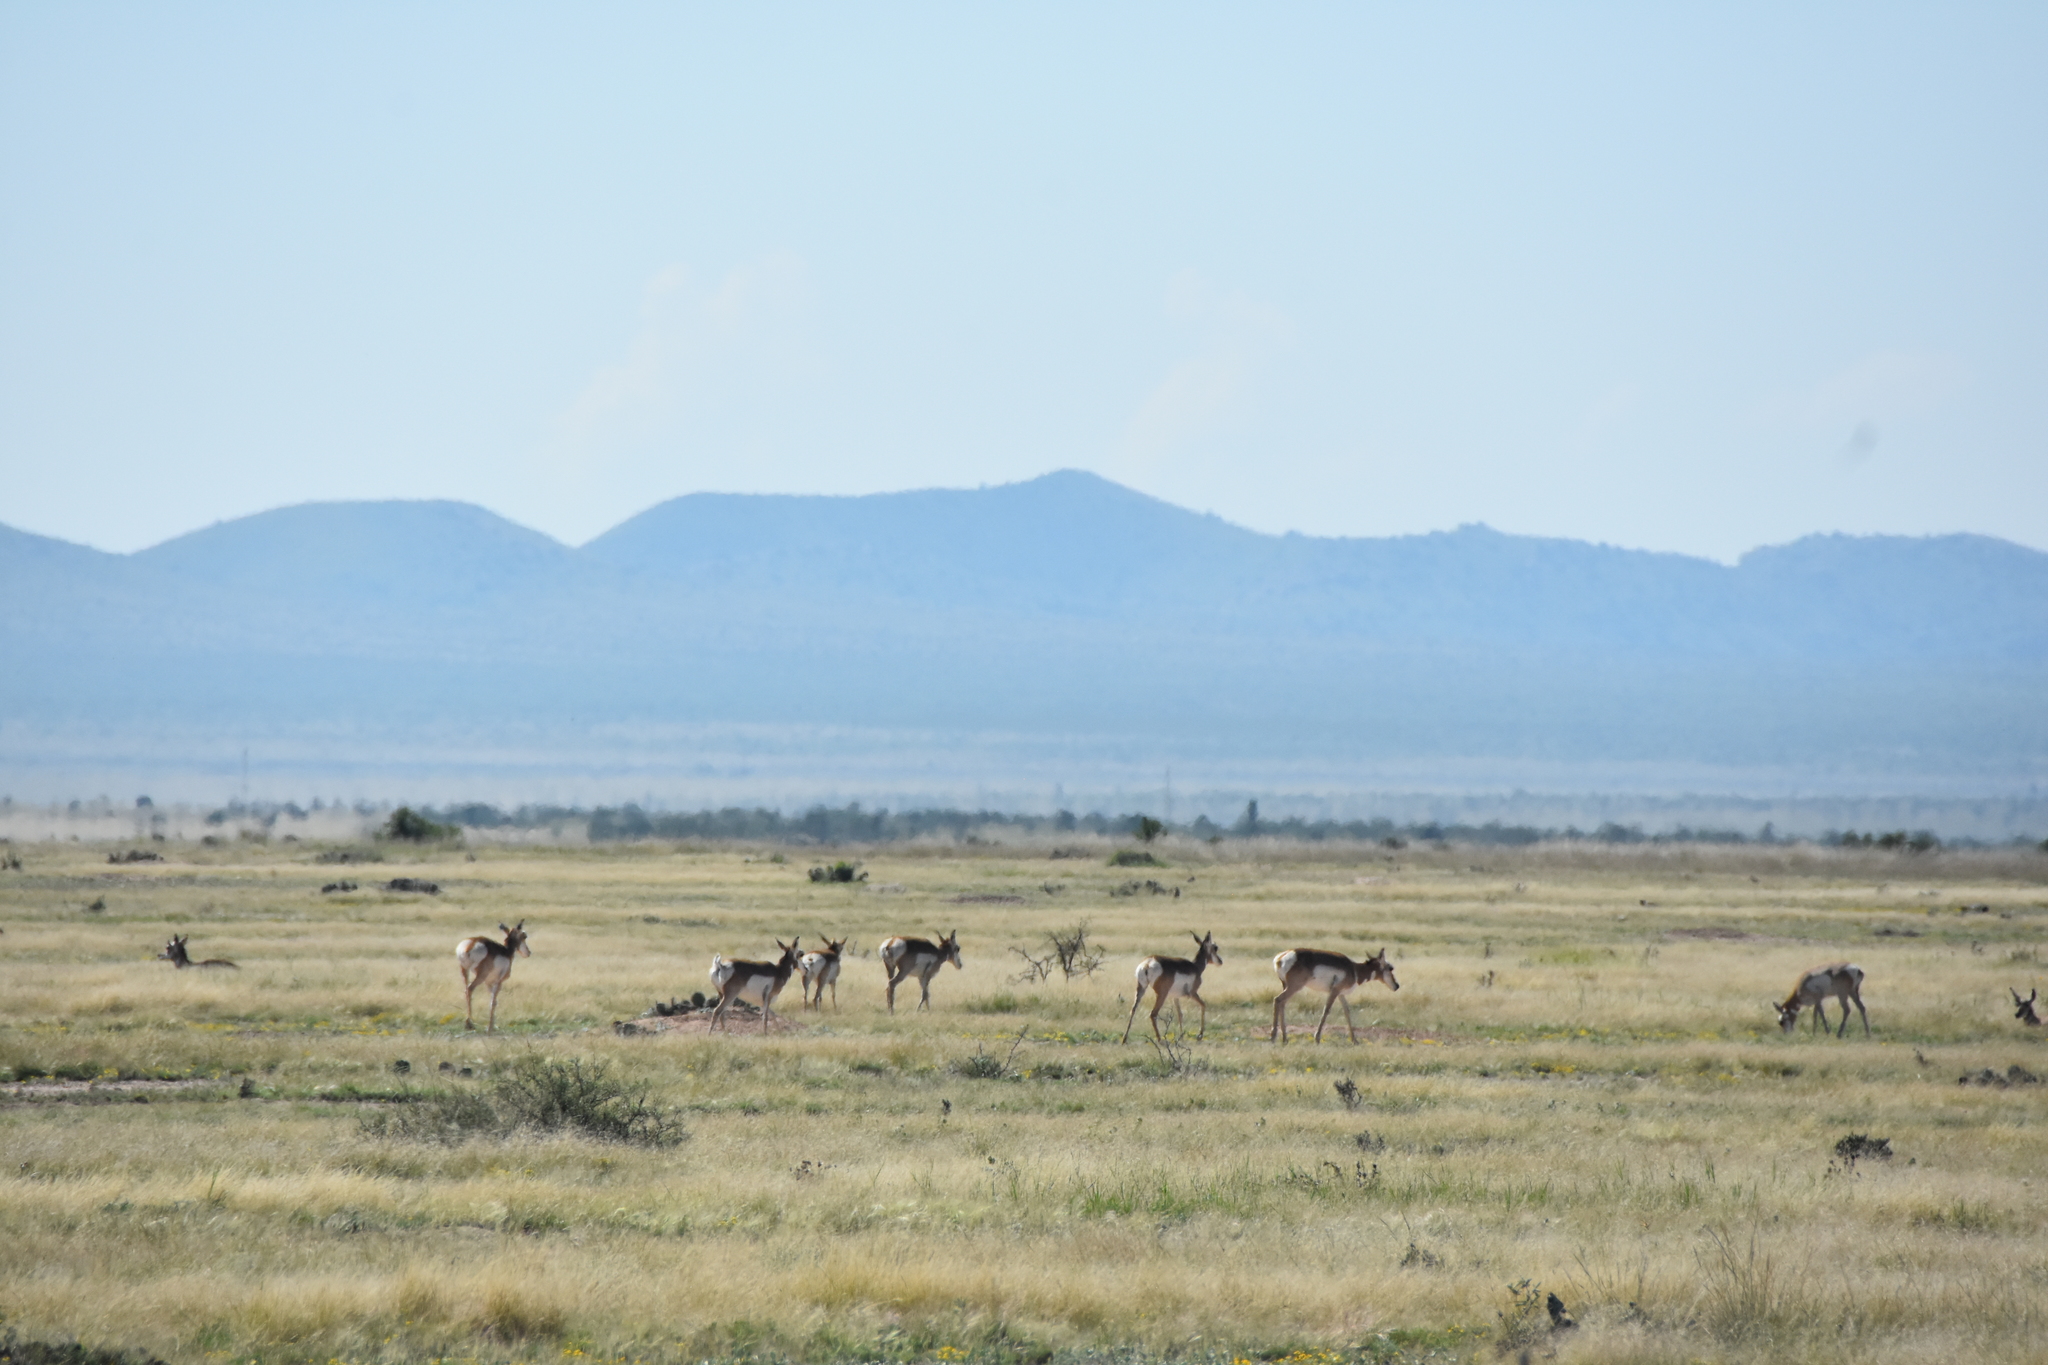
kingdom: Animalia
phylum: Chordata
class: Mammalia
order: Artiodactyla
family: Antilocapridae
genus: Antilocapra
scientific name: Antilocapra americana
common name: Pronghorn
